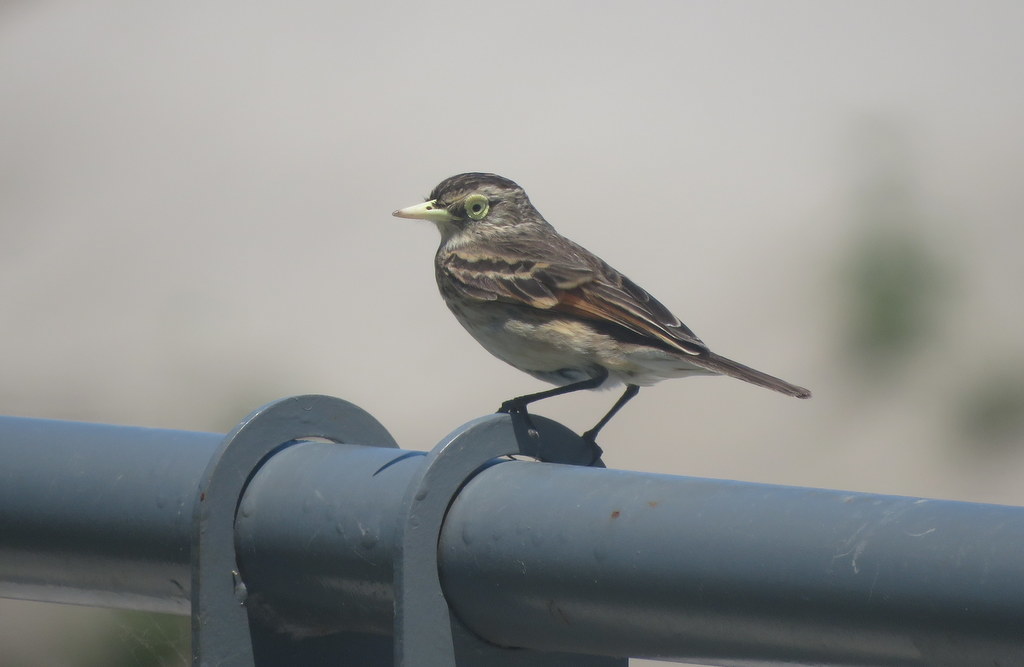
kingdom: Animalia
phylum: Chordata
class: Aves
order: Passeriformes
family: Tyrannidae
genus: Hymenops
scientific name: Hymenops perspicillatus
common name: Spectacled tyrant
